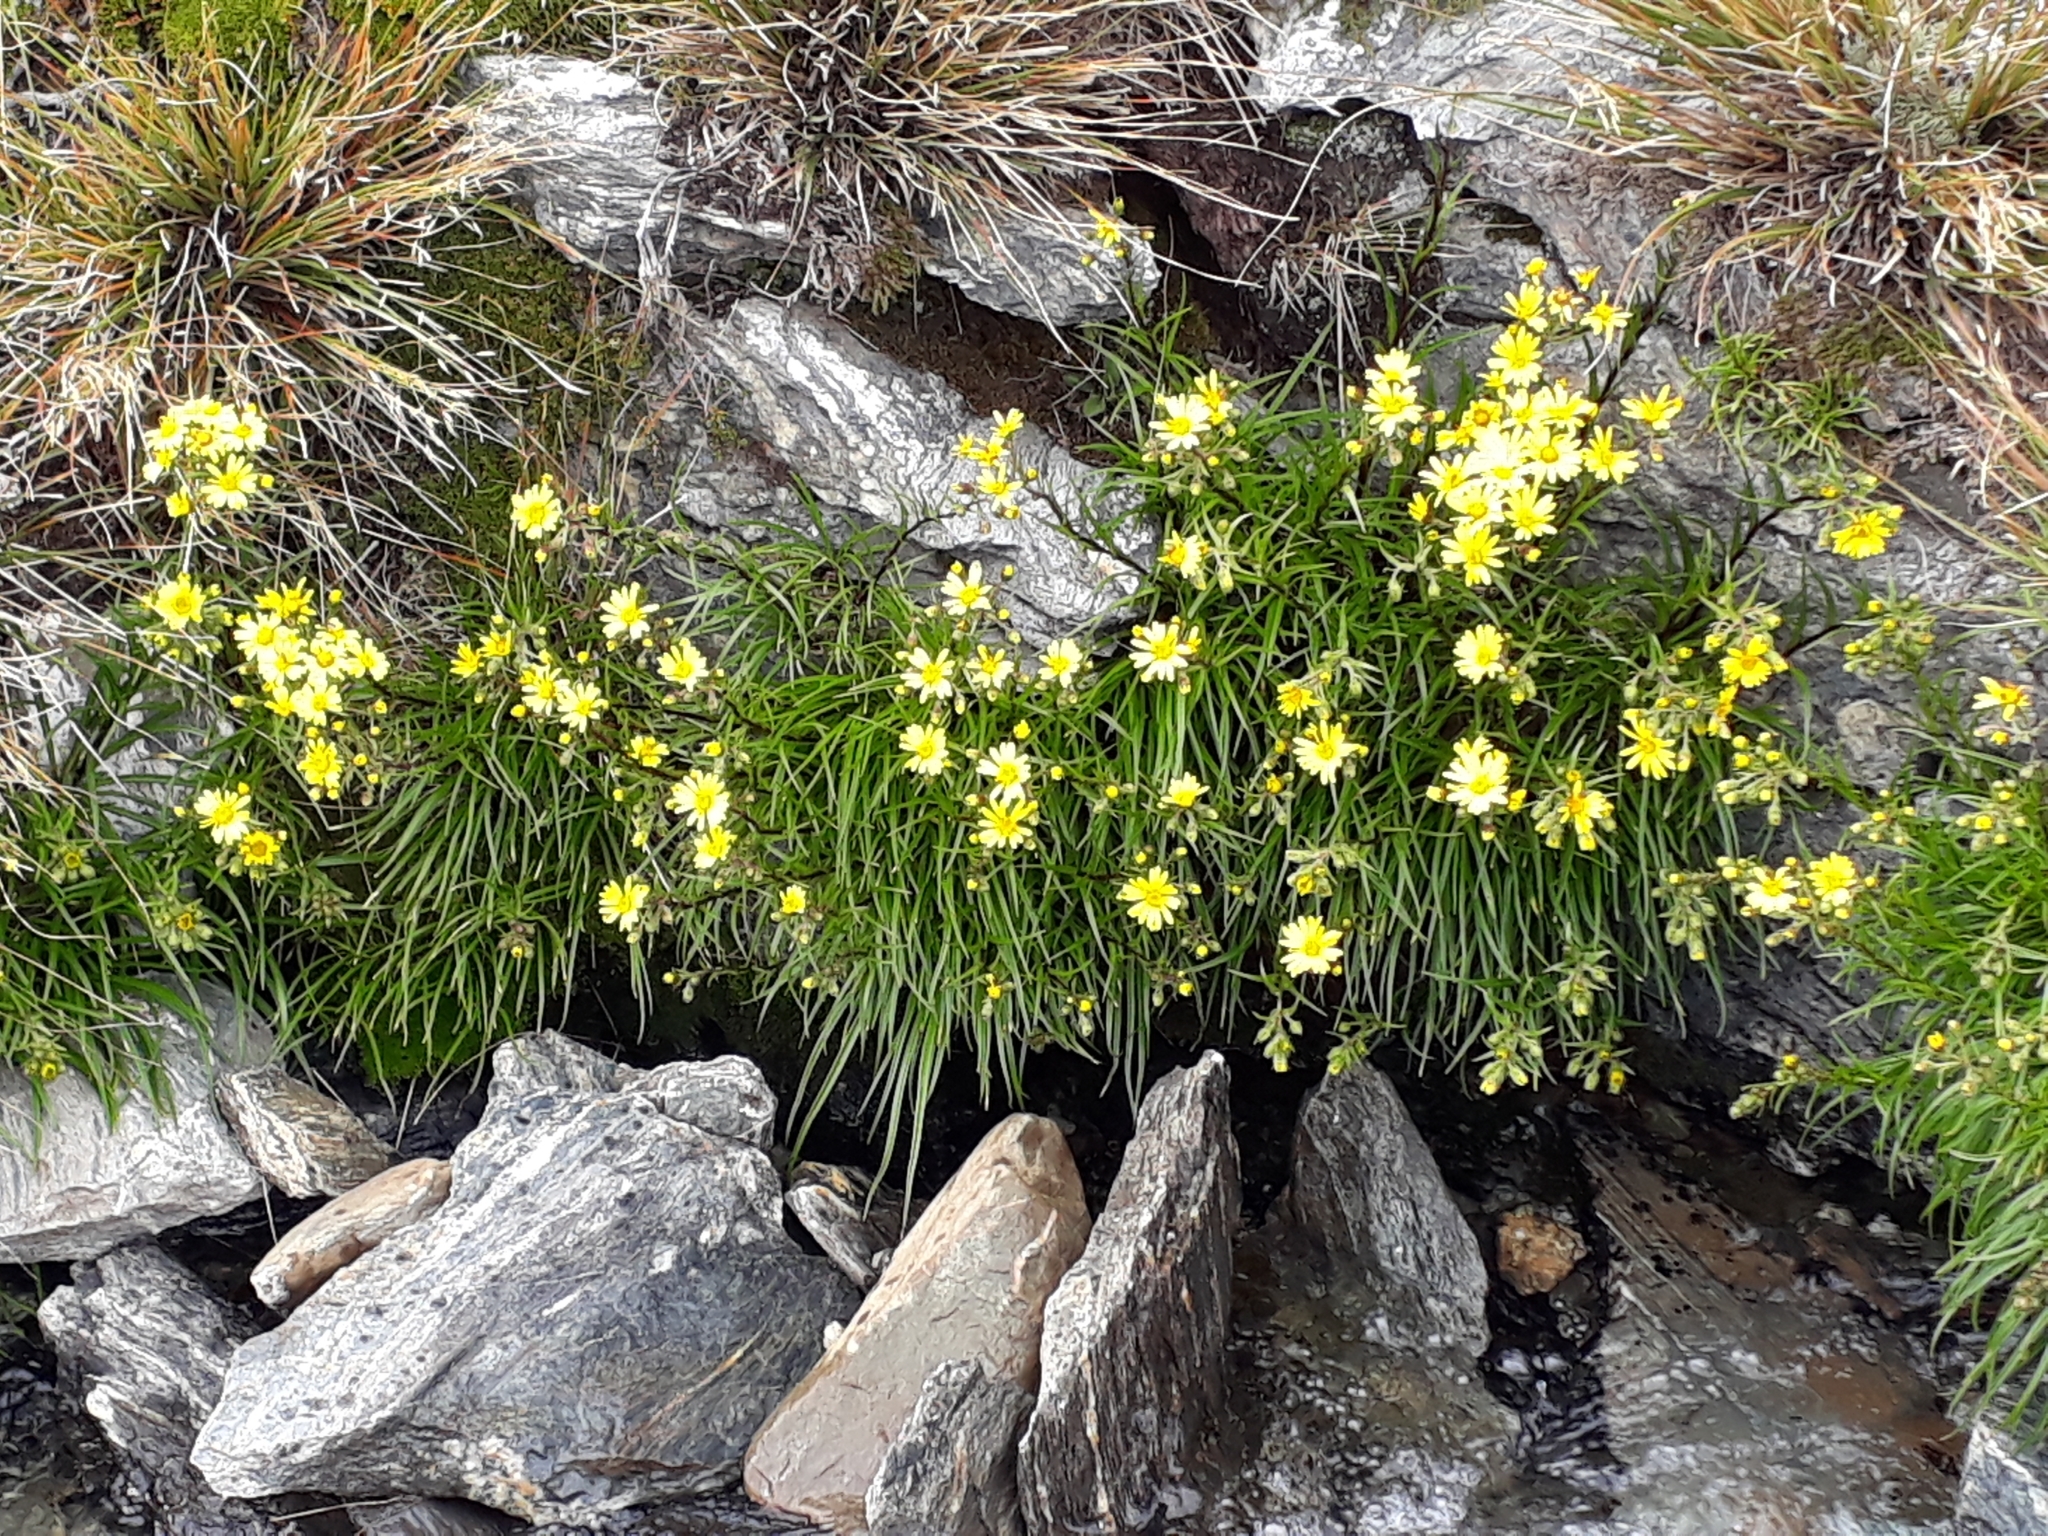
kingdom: Plantae
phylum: Tracheophyta
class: Magnoliopsida
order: Asterales
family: Asteraceae
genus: Dolichoglottis
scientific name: Dolichoglottis lyallii
